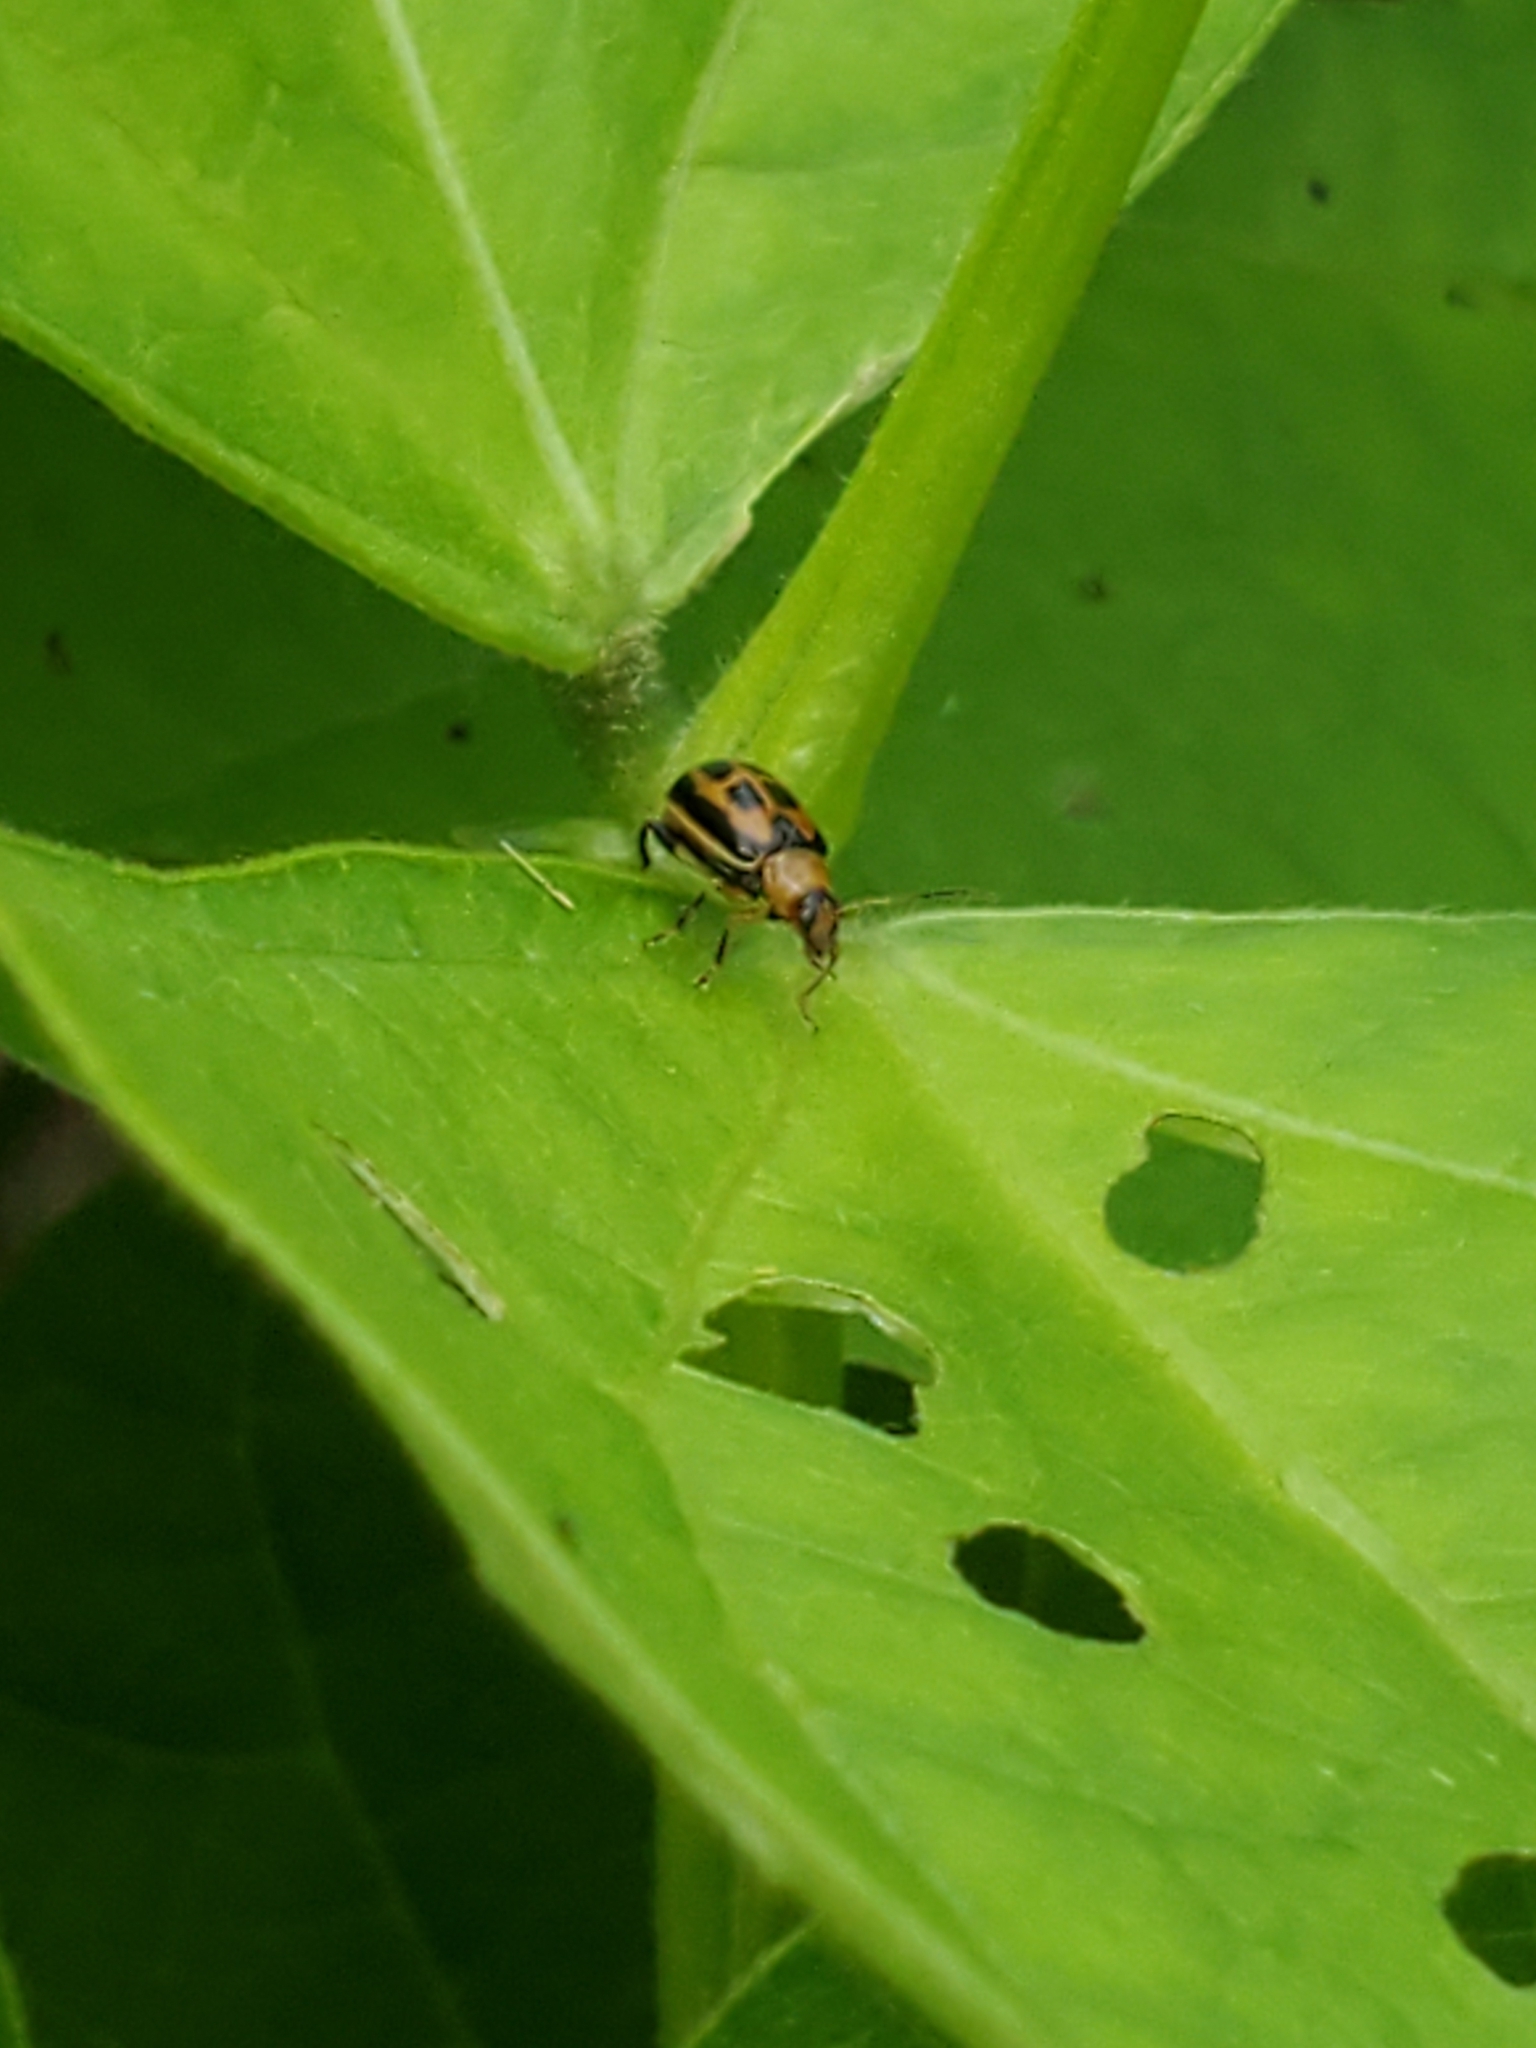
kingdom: Animalia
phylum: Arthropoda
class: Insecta
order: Coleoptera
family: Chrysomelidae
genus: Cerotoma
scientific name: Cerotoma trifurcata
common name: Bean leaf beetle
